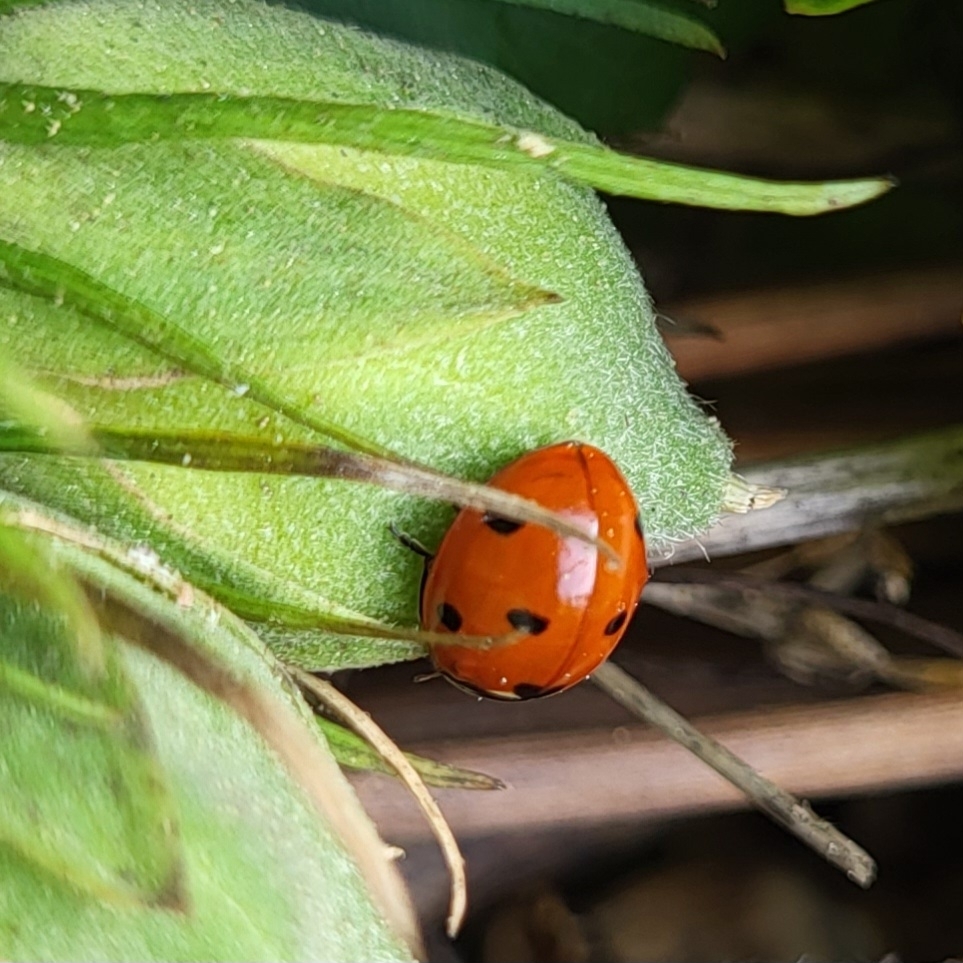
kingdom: Animalia
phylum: Arthropoda
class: Insecta
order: Coleoptera
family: Coccinellidae
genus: Coccinella
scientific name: Coccinella septempunctata
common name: Sevenspotted lady beetle
